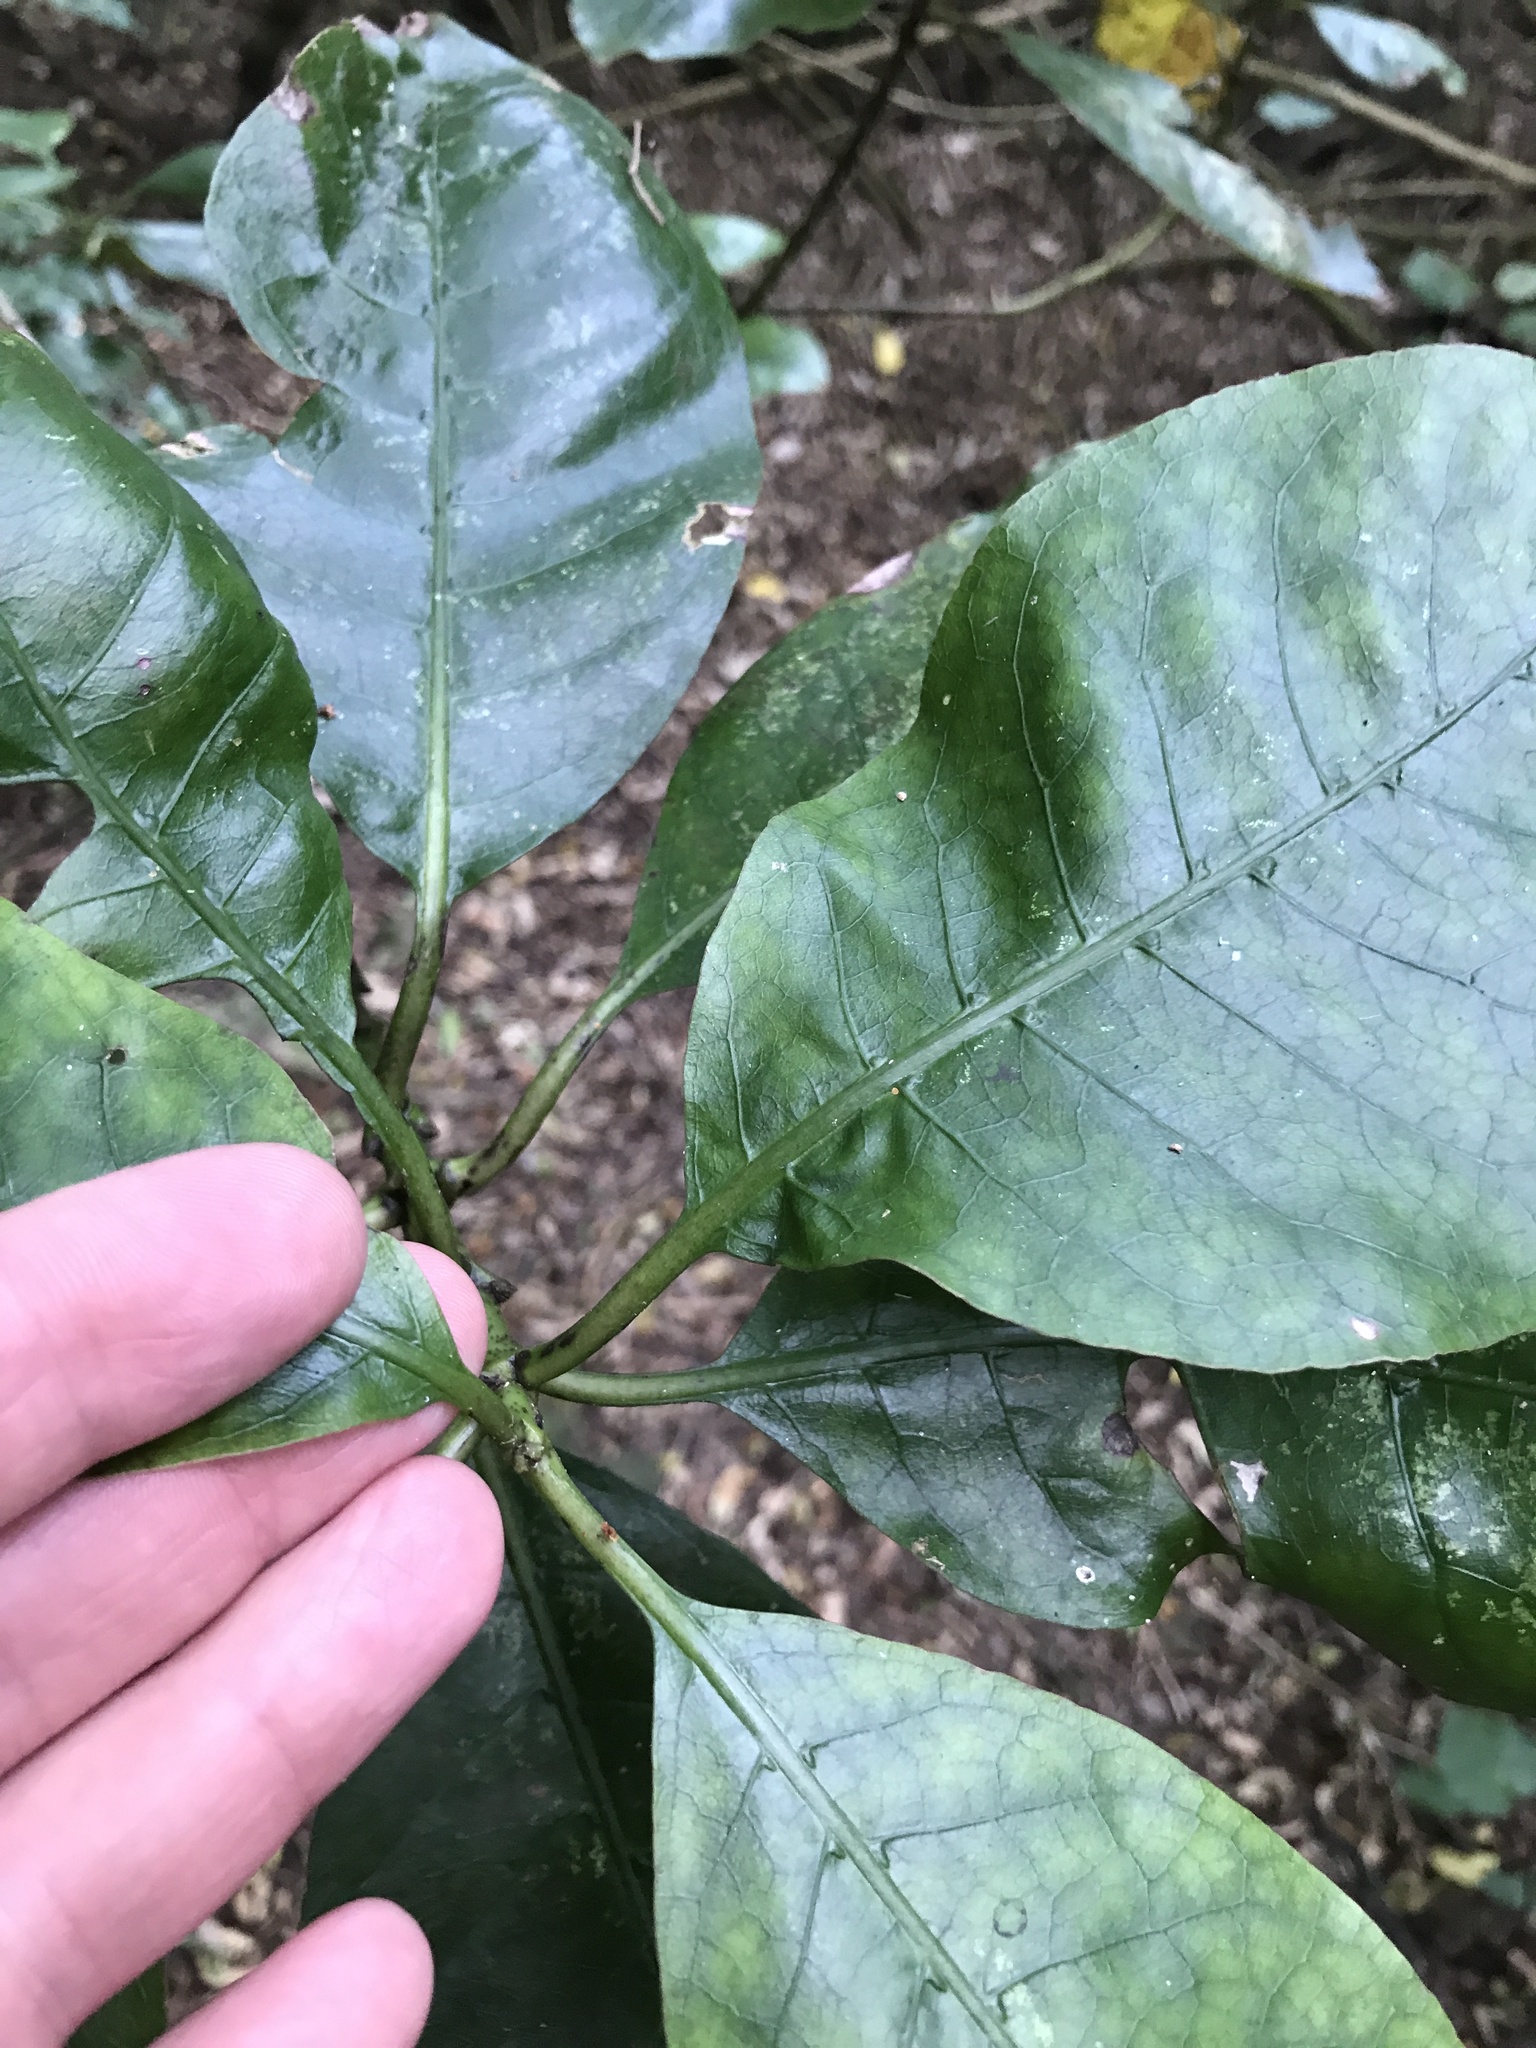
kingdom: Plantae
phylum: Tracheophyta
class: Magnoliopsida
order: Gentianales
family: Rubiaceae
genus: Coprosma
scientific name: Coprosma autumnalis
